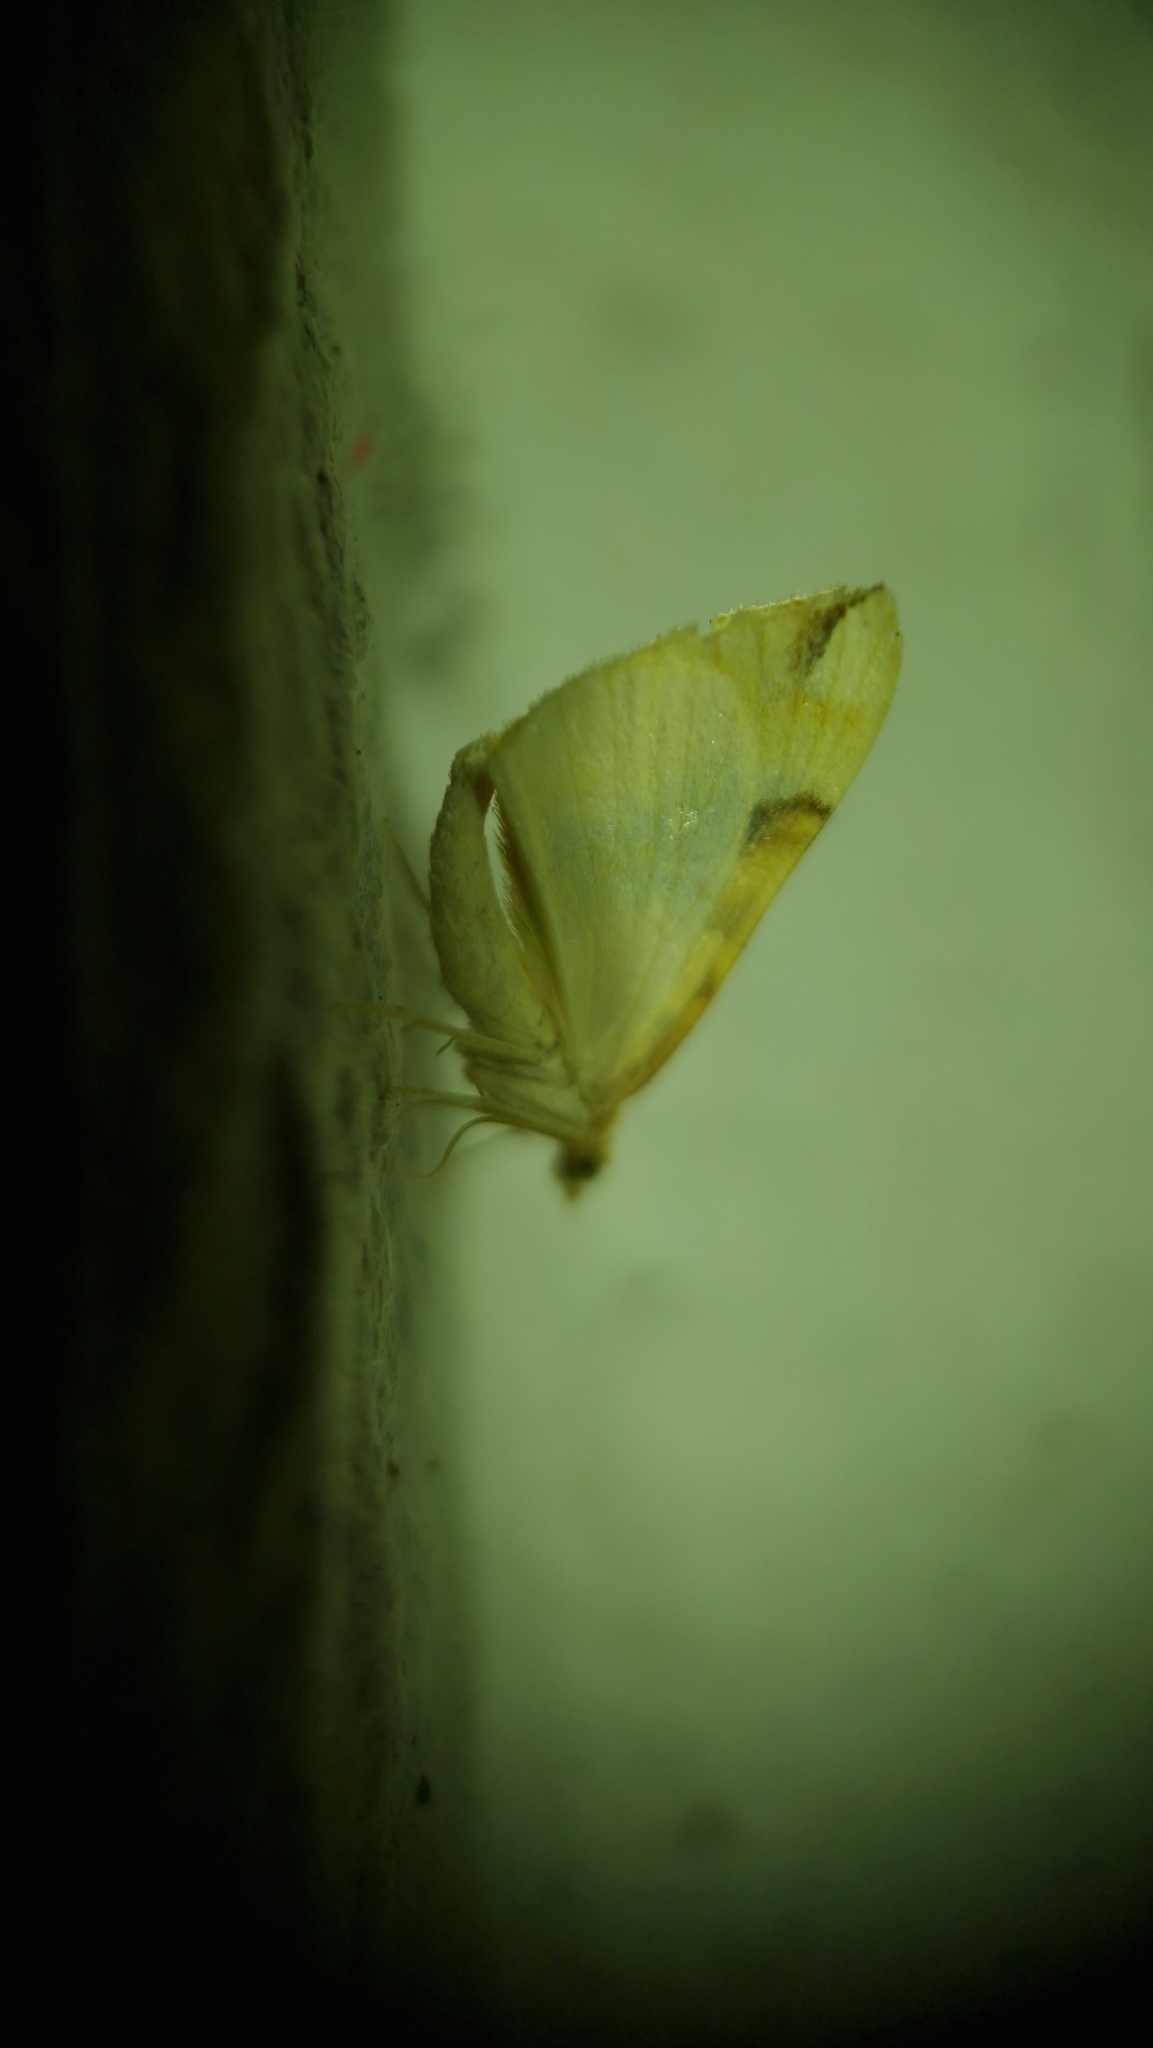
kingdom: Animalia
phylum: Arthropoda
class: Insecta
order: Lepidoptera
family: Geometridae
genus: Cidaria
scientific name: Cidaria fulvata
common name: Barred yellow
